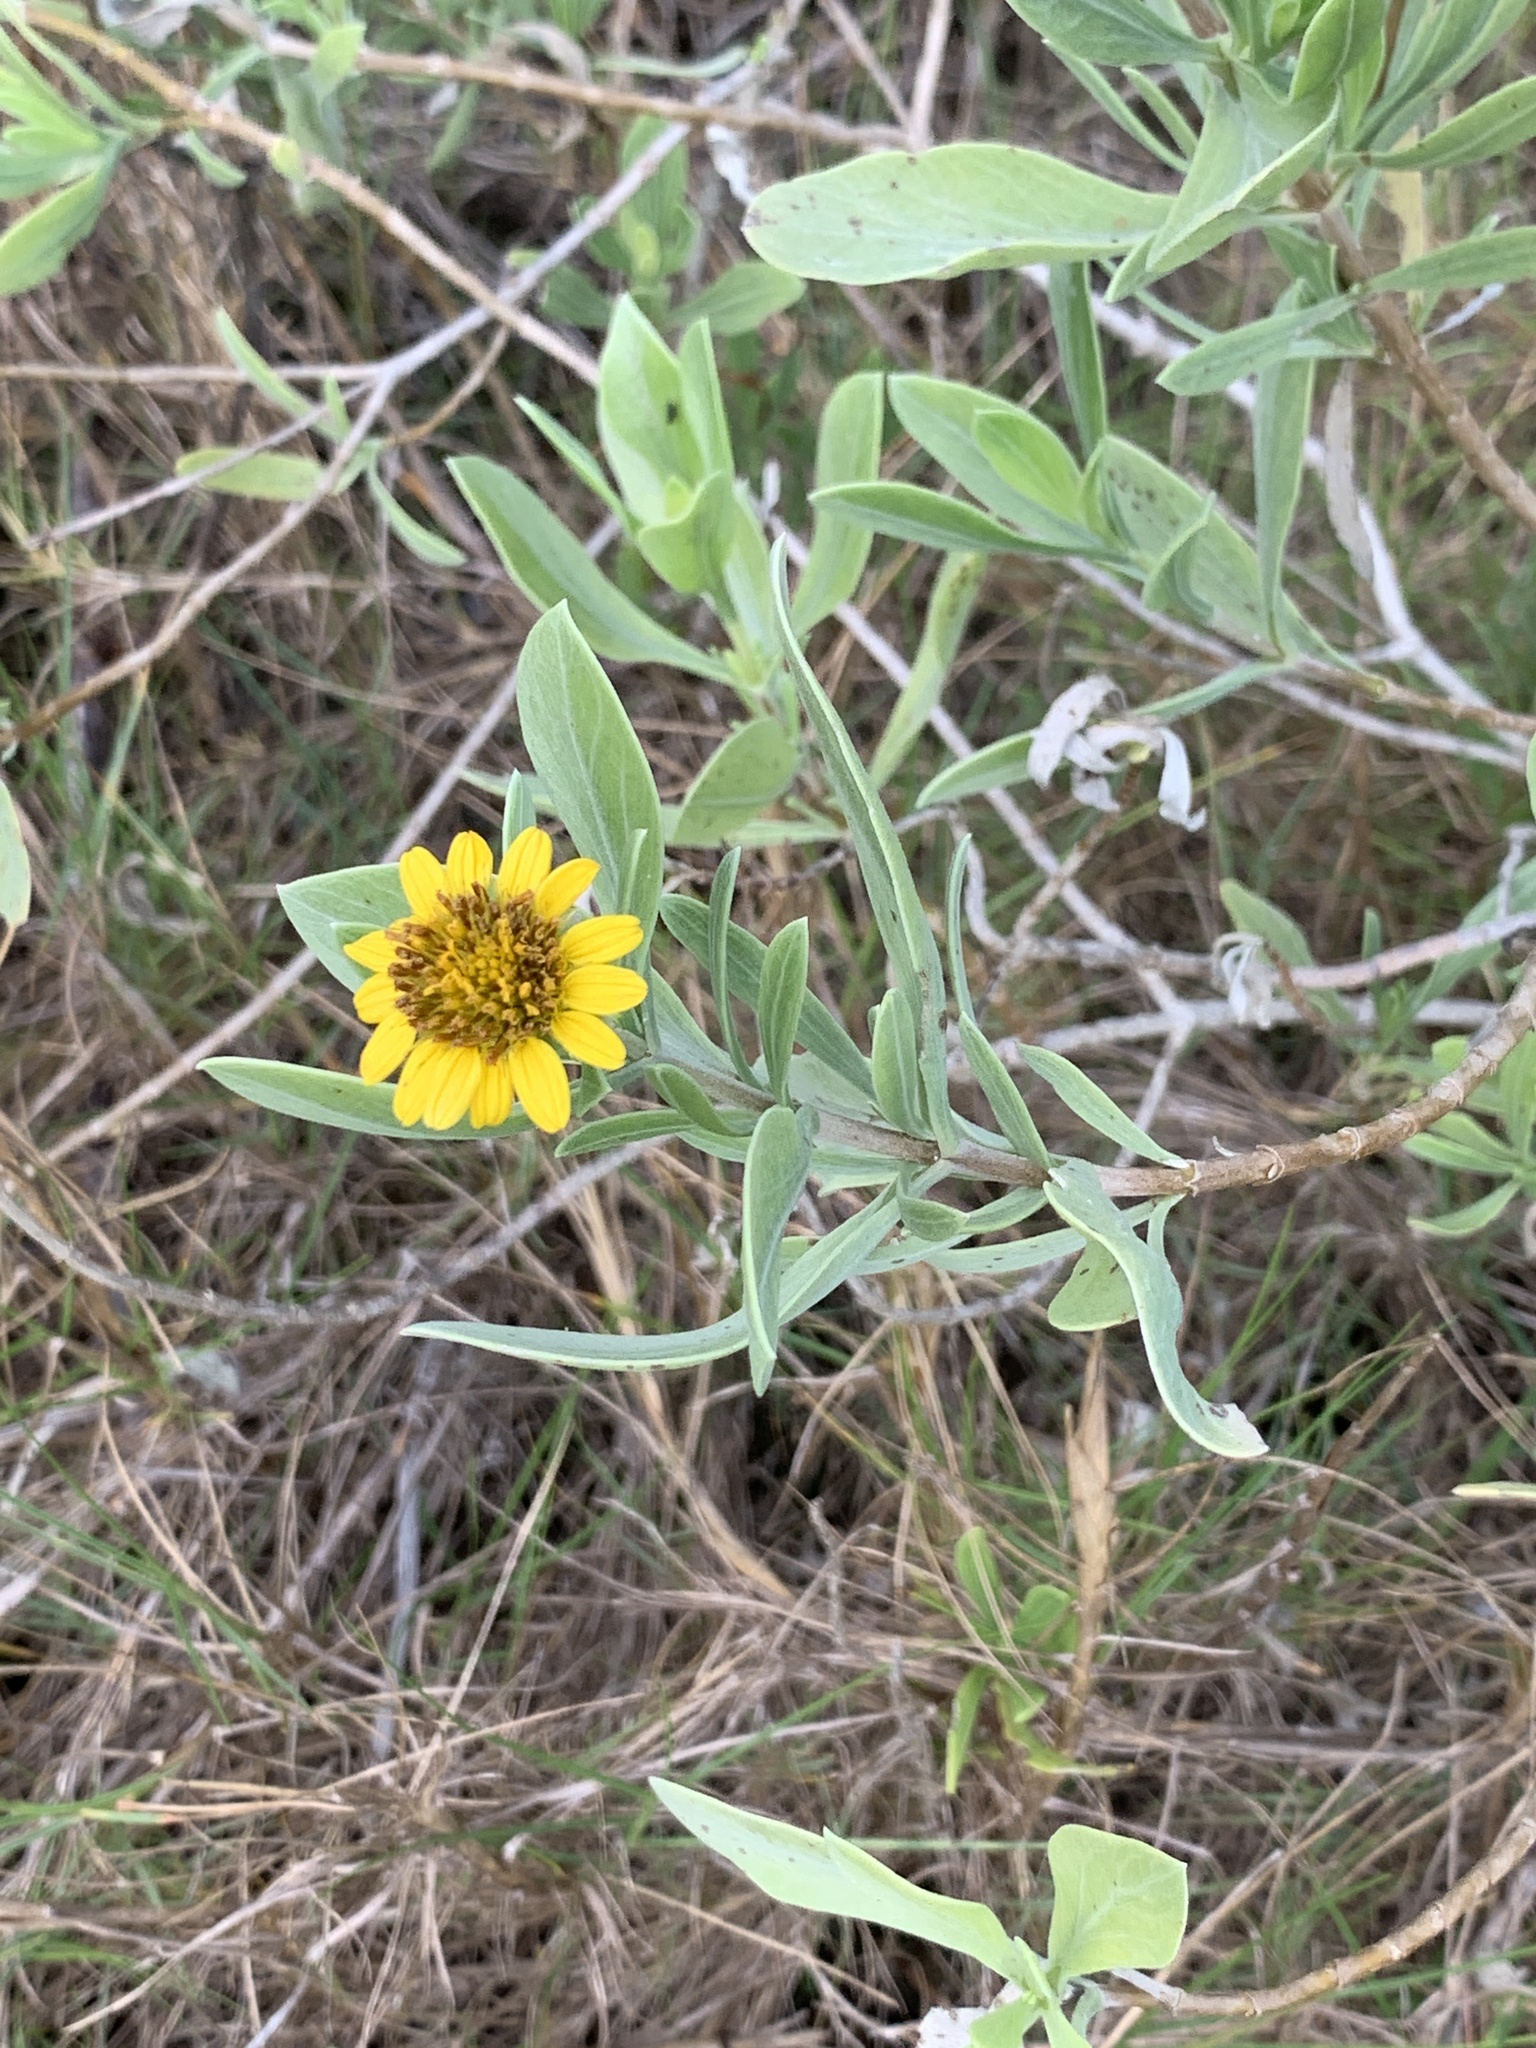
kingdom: Plantae
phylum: Tracheophyta
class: Magnoliopsida
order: Asterales
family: Asteraceae
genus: Borrichia
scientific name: Borrichia frutescens
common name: Sea oxeye
